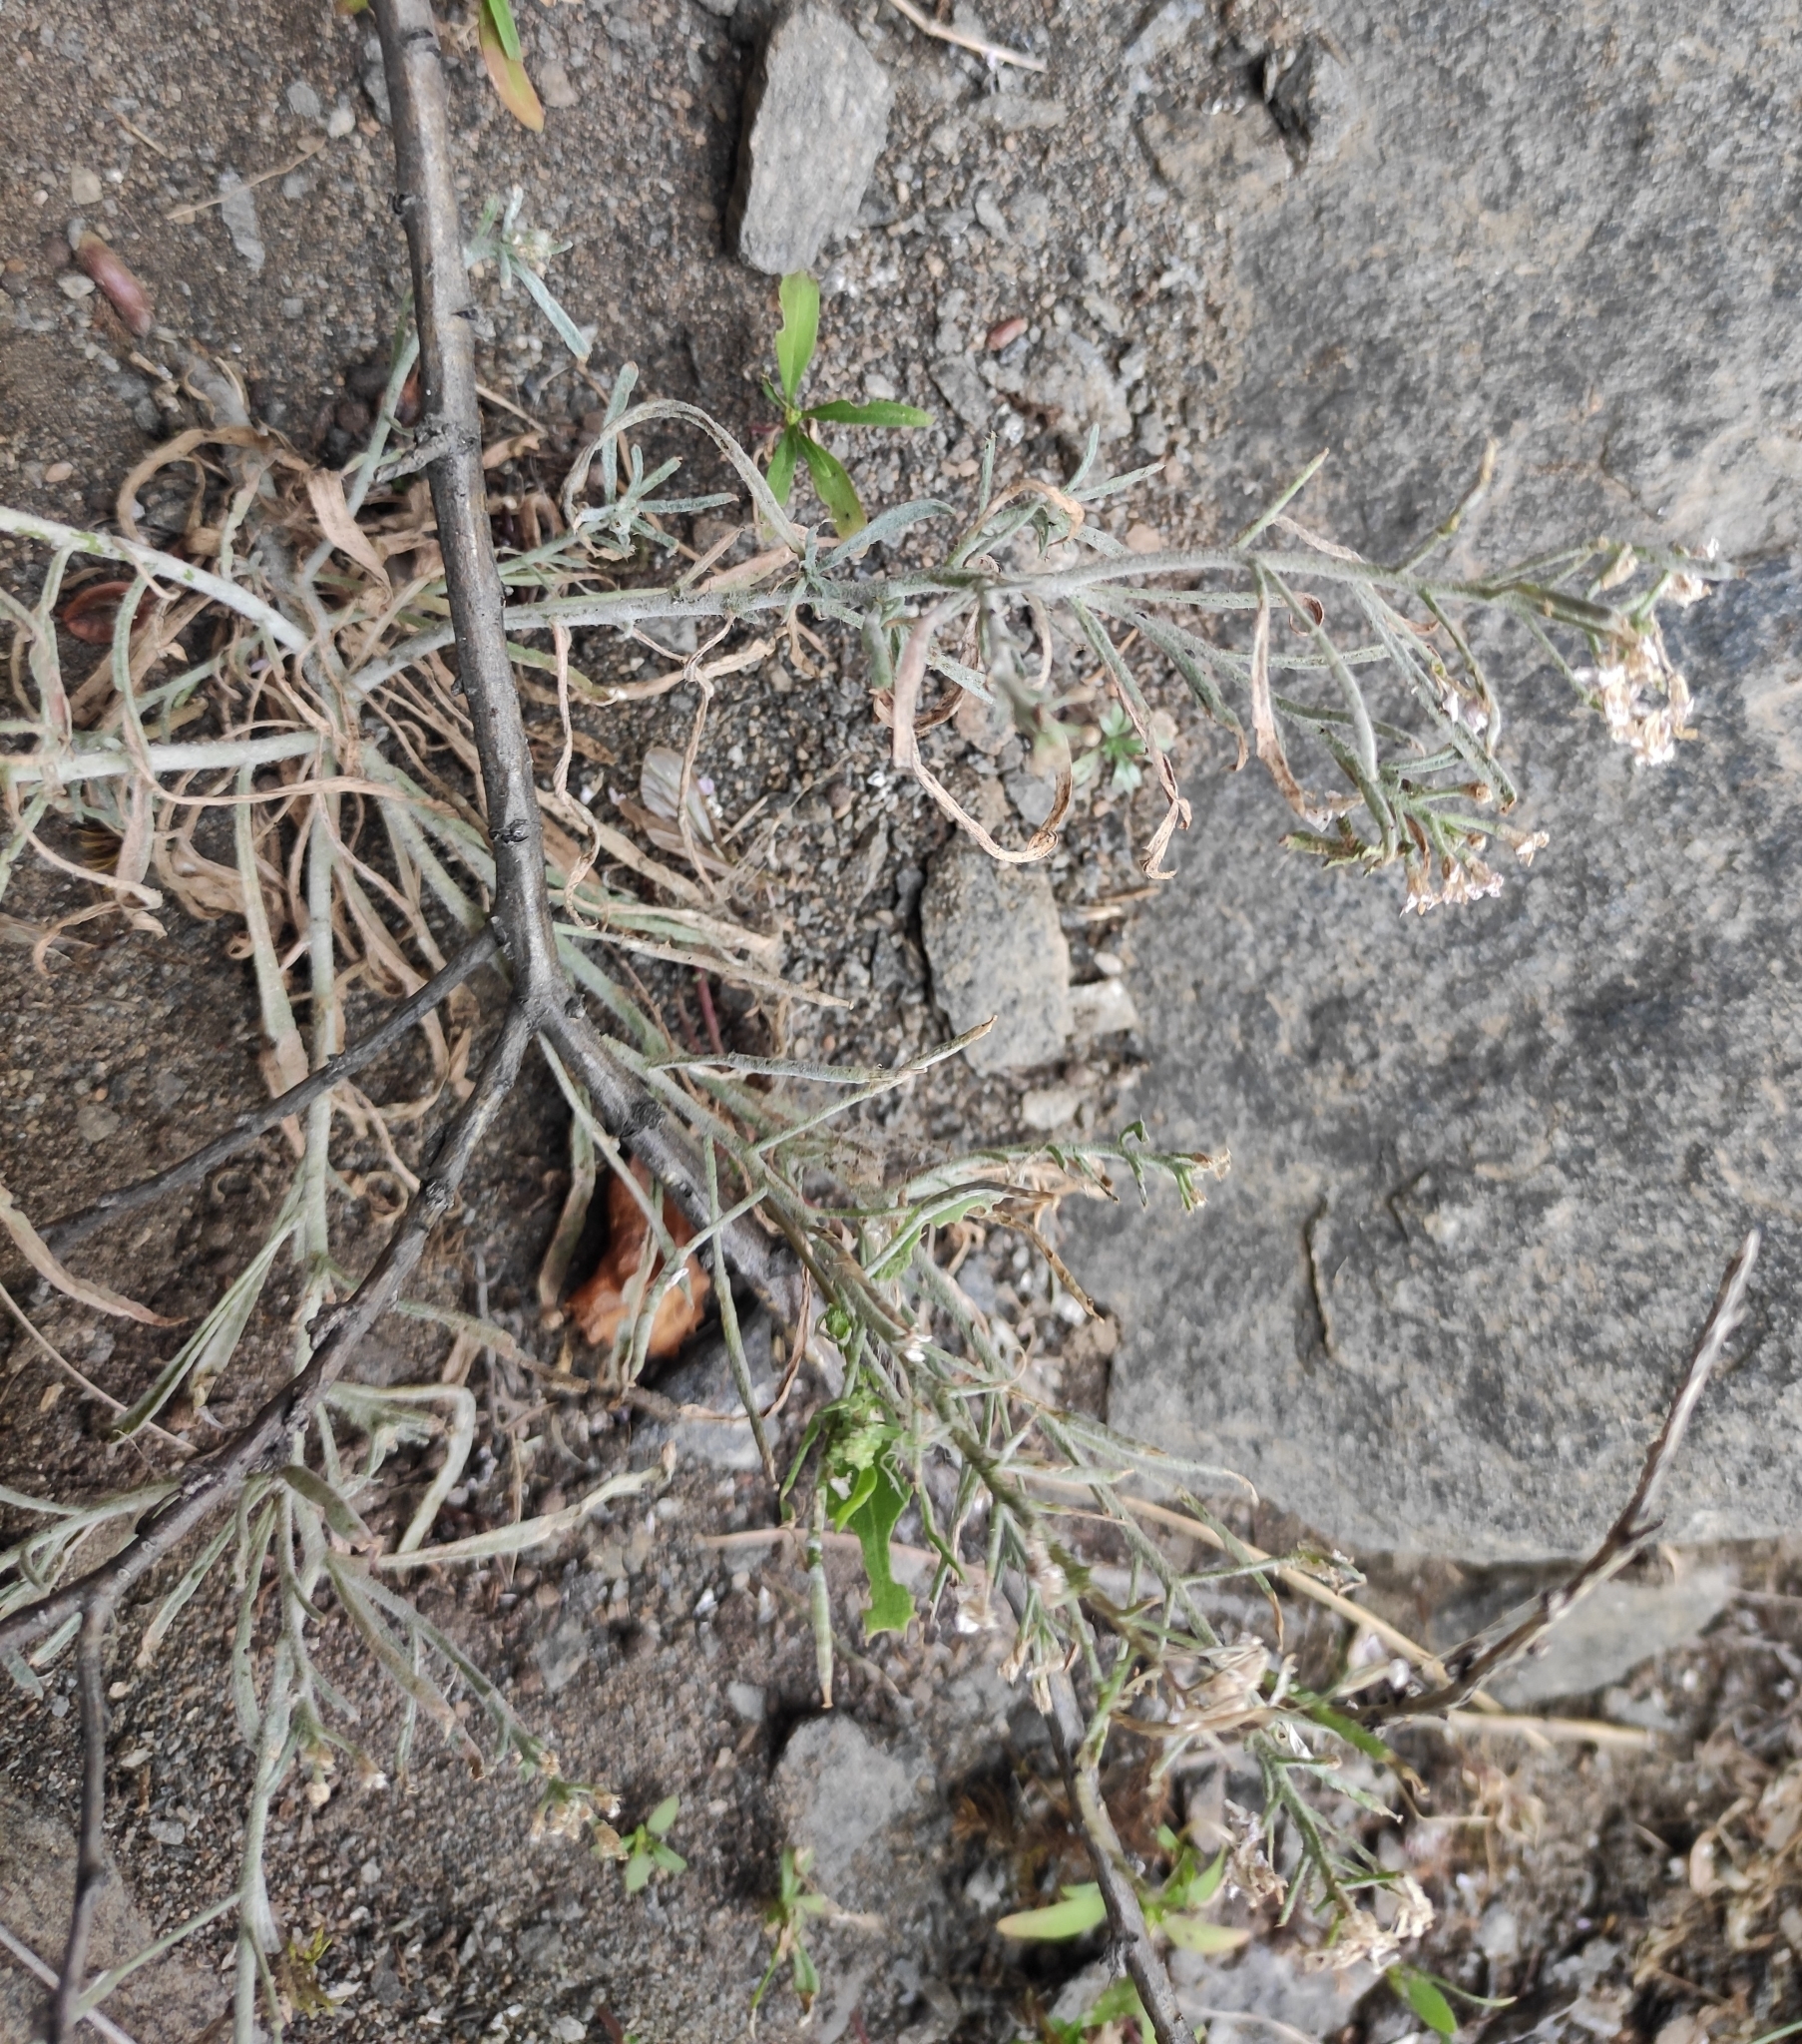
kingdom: Plantae
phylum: Tracheophyta
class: Magnoliopsida
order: Brassicales
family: Brassicaceae
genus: Stevenia
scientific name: Stevenia tenuifolia
